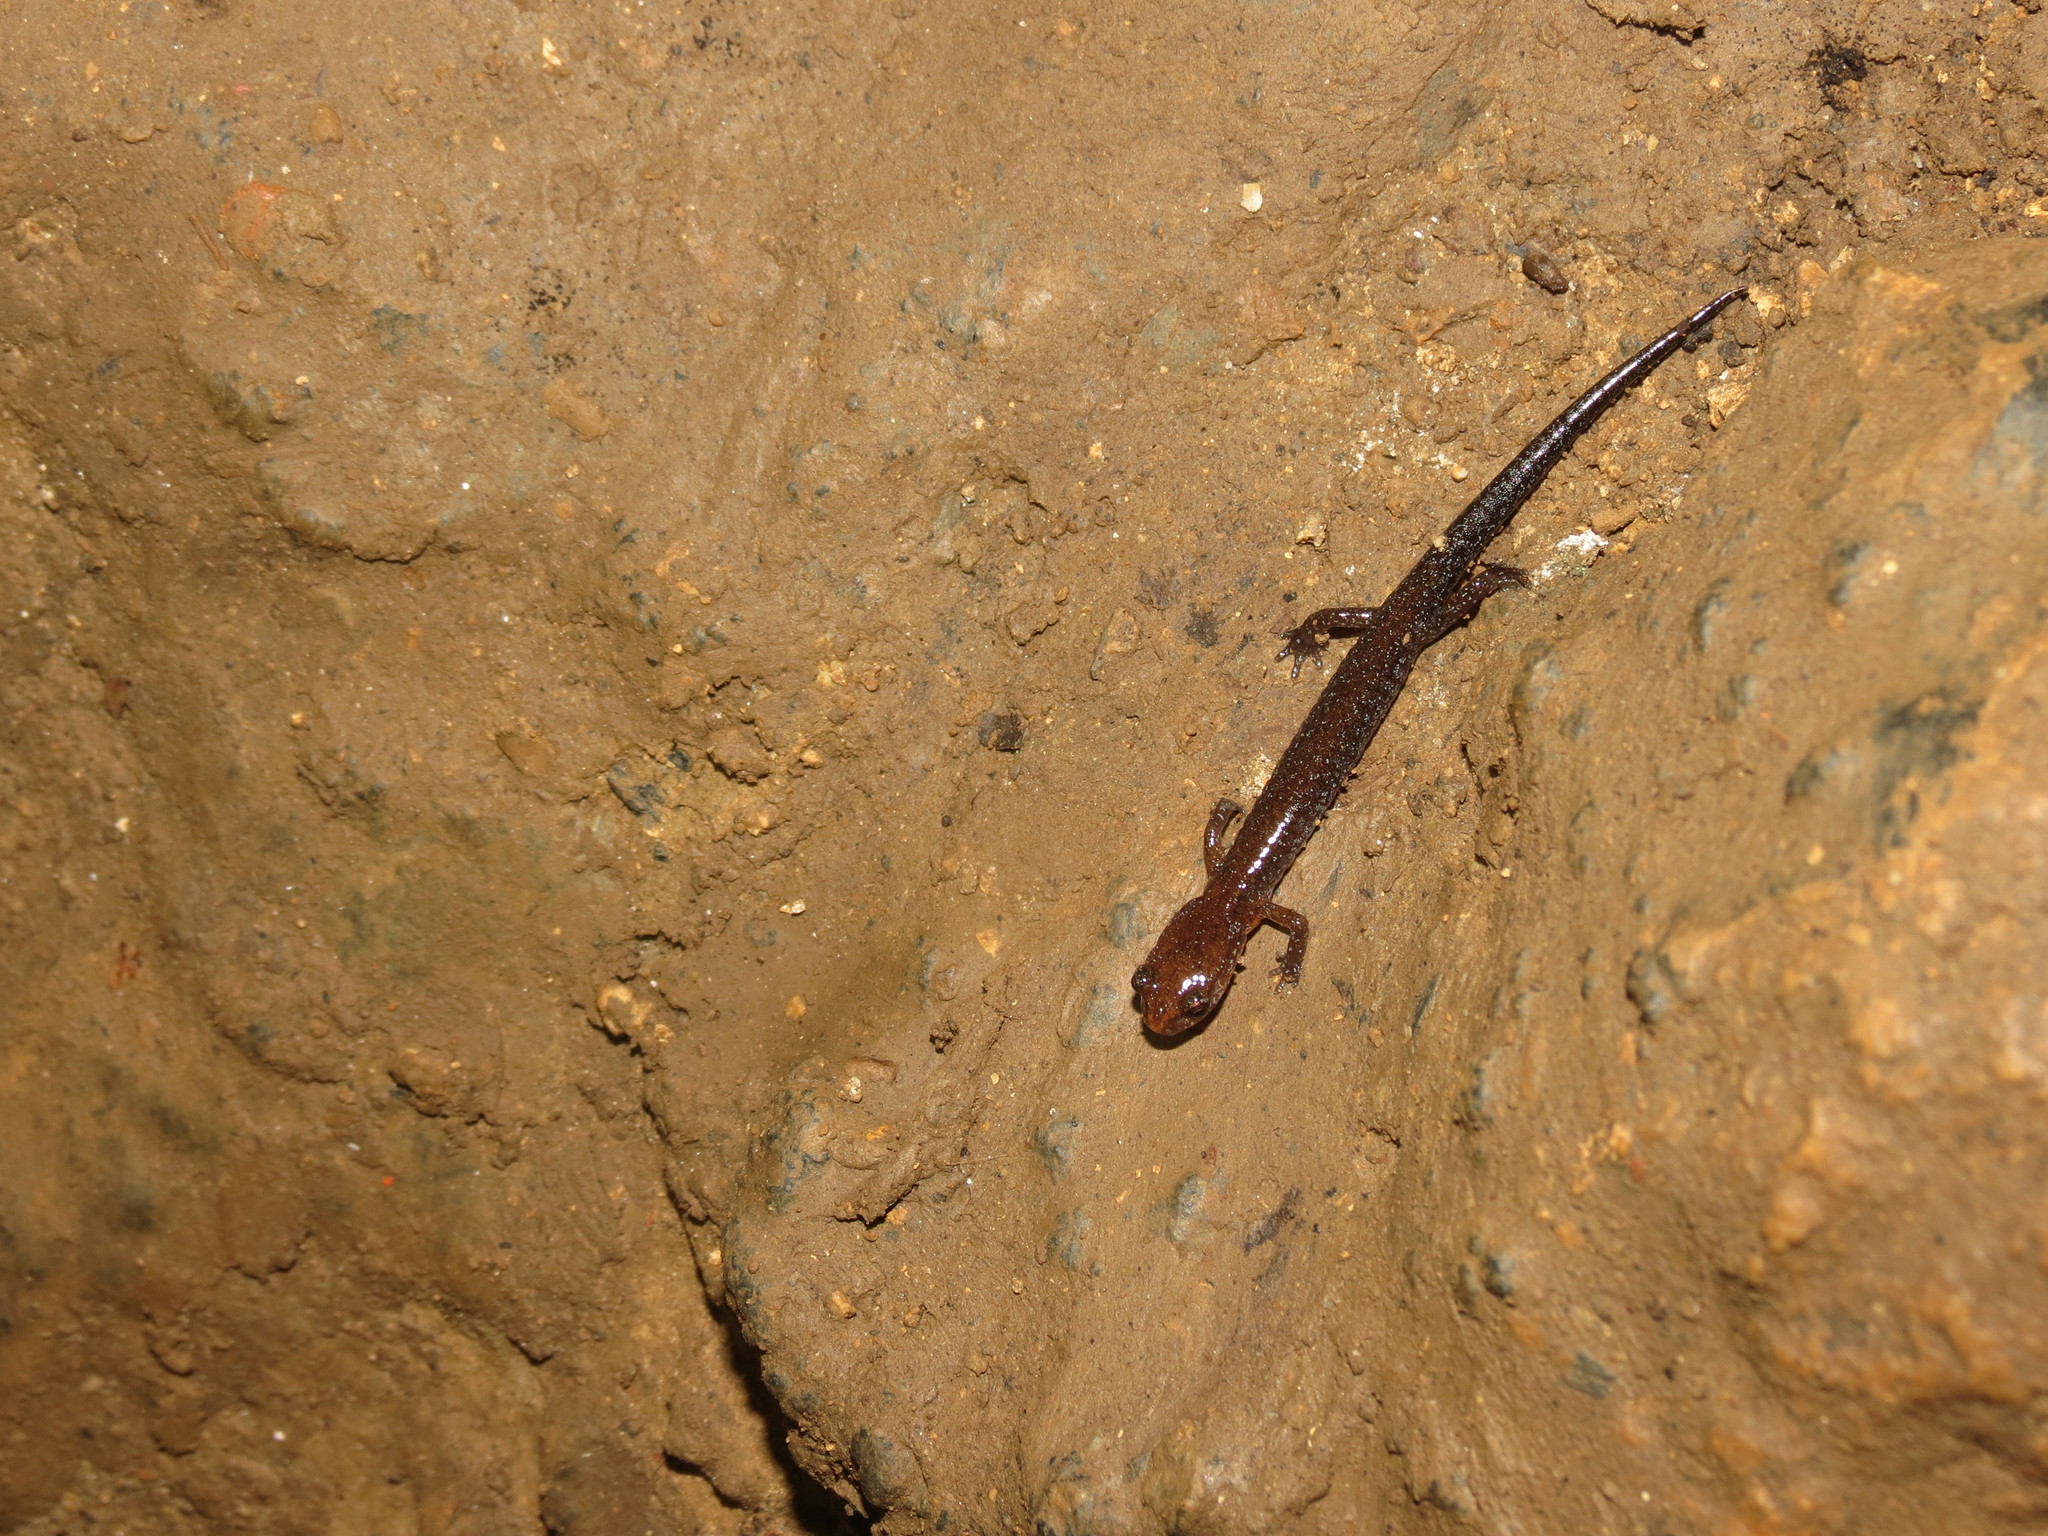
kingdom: Animalia
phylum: Chordata
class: Amphibia
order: Caudata
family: Plethodontidae
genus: Plethodon
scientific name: Plethodon ventralis
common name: Southern zigzag salamander
